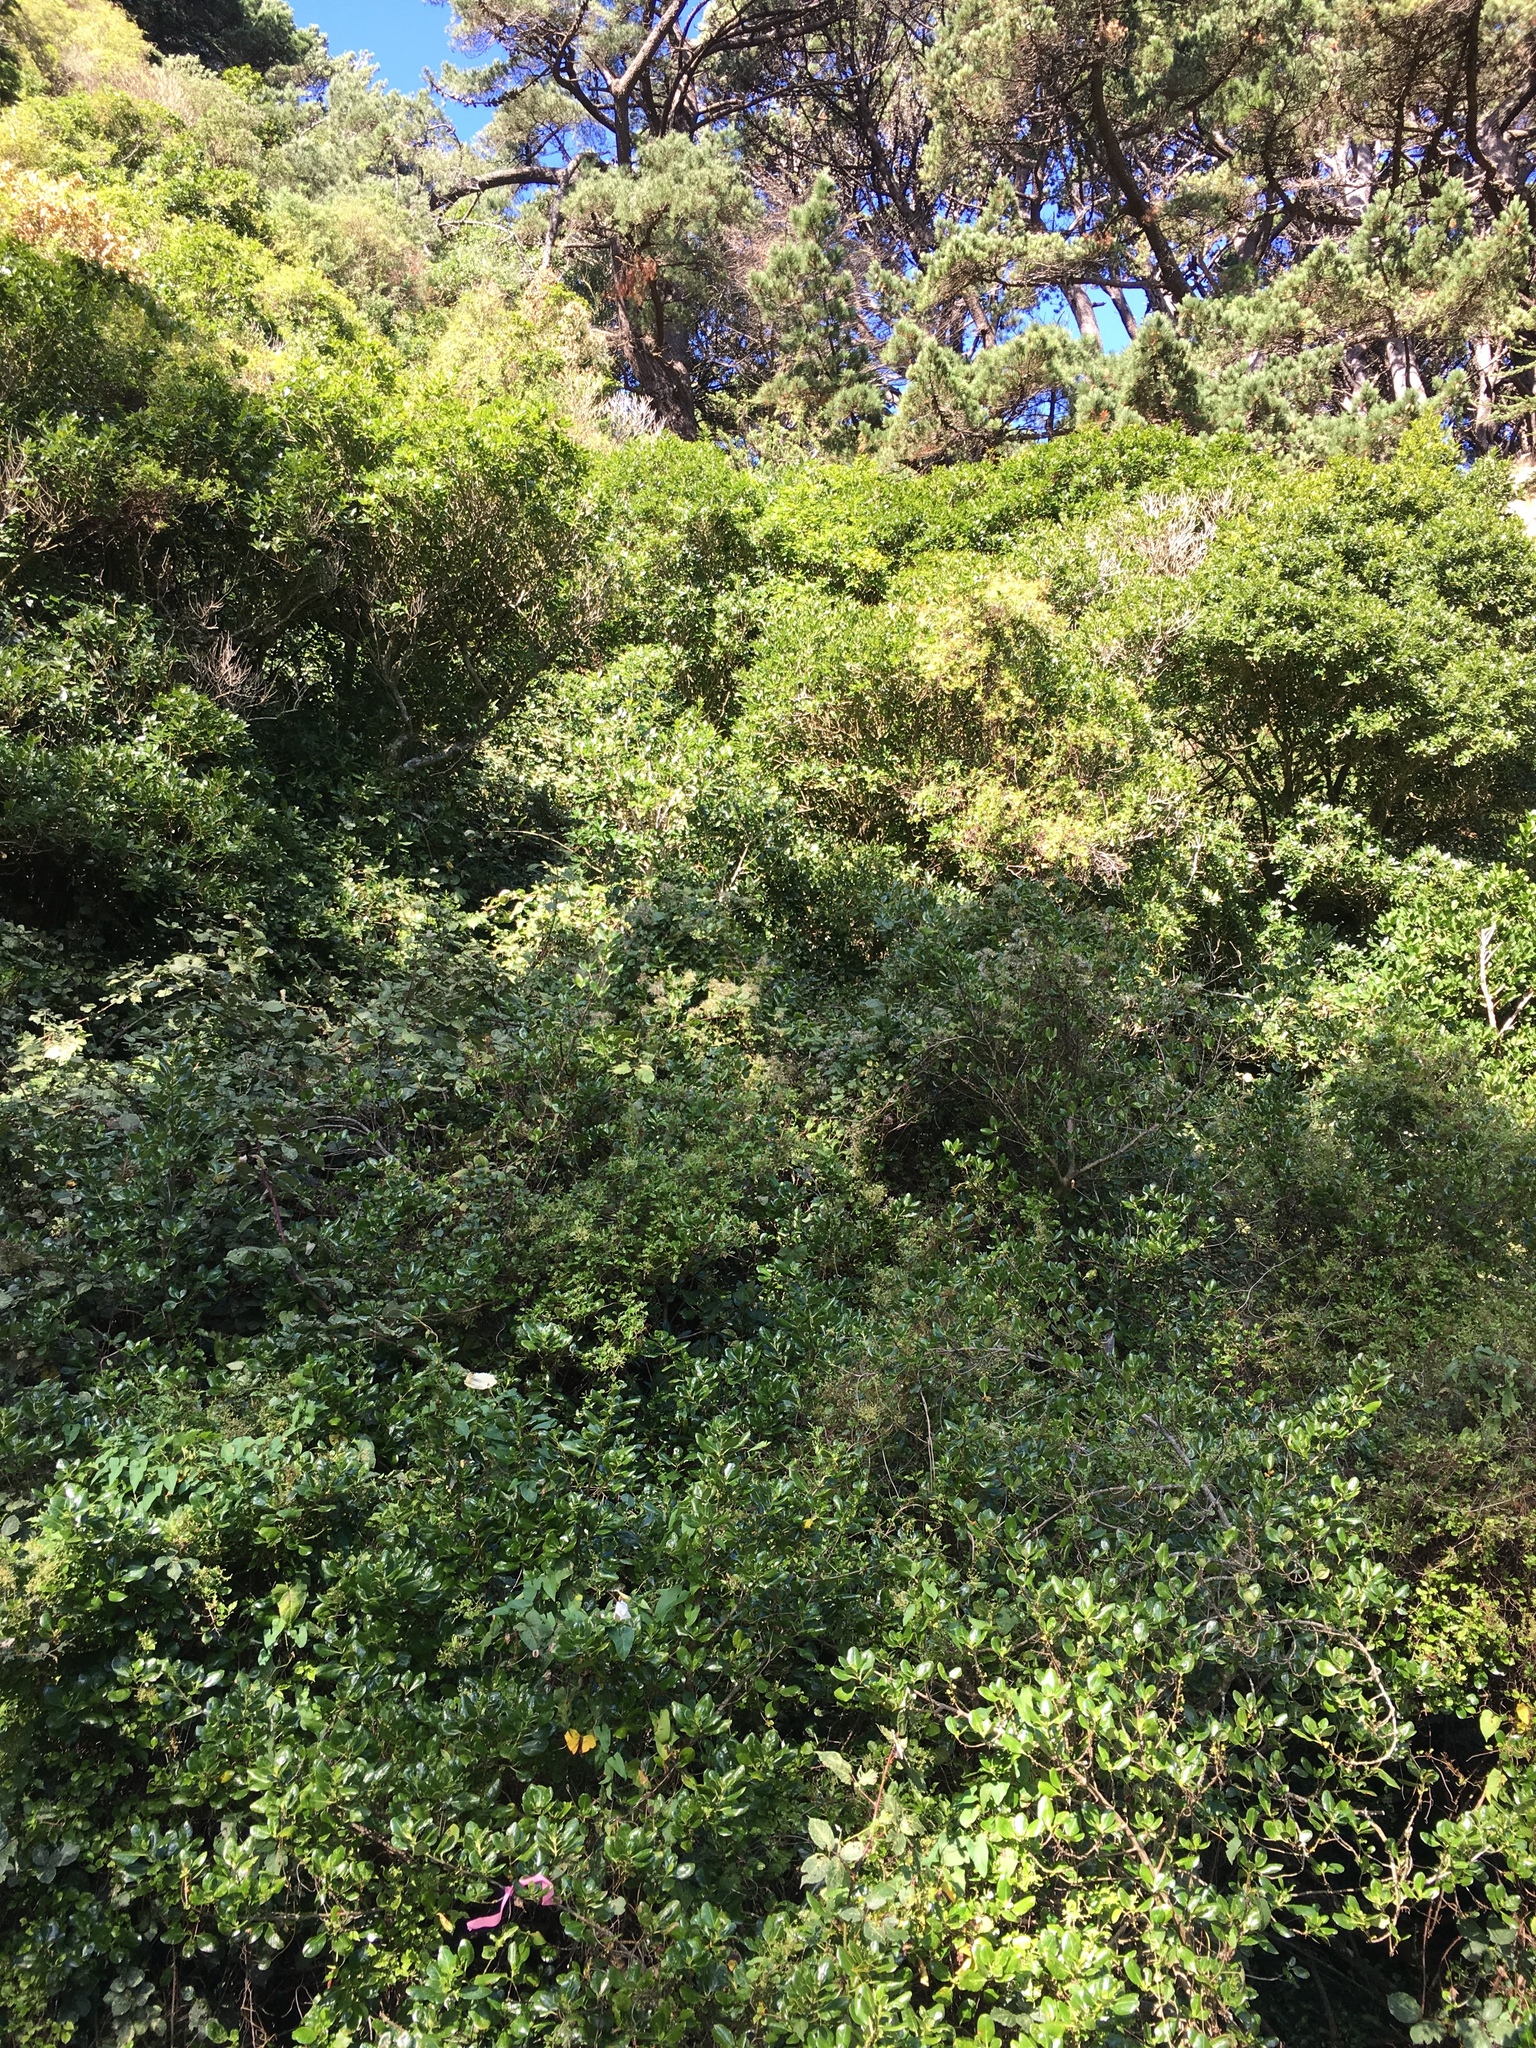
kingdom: Plantae
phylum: Tracheophyta
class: Magnoliopsida
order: Ranunculales
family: Ranunculaceae
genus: Clematis
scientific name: Clematis vitalba
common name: Evergreen clematis
